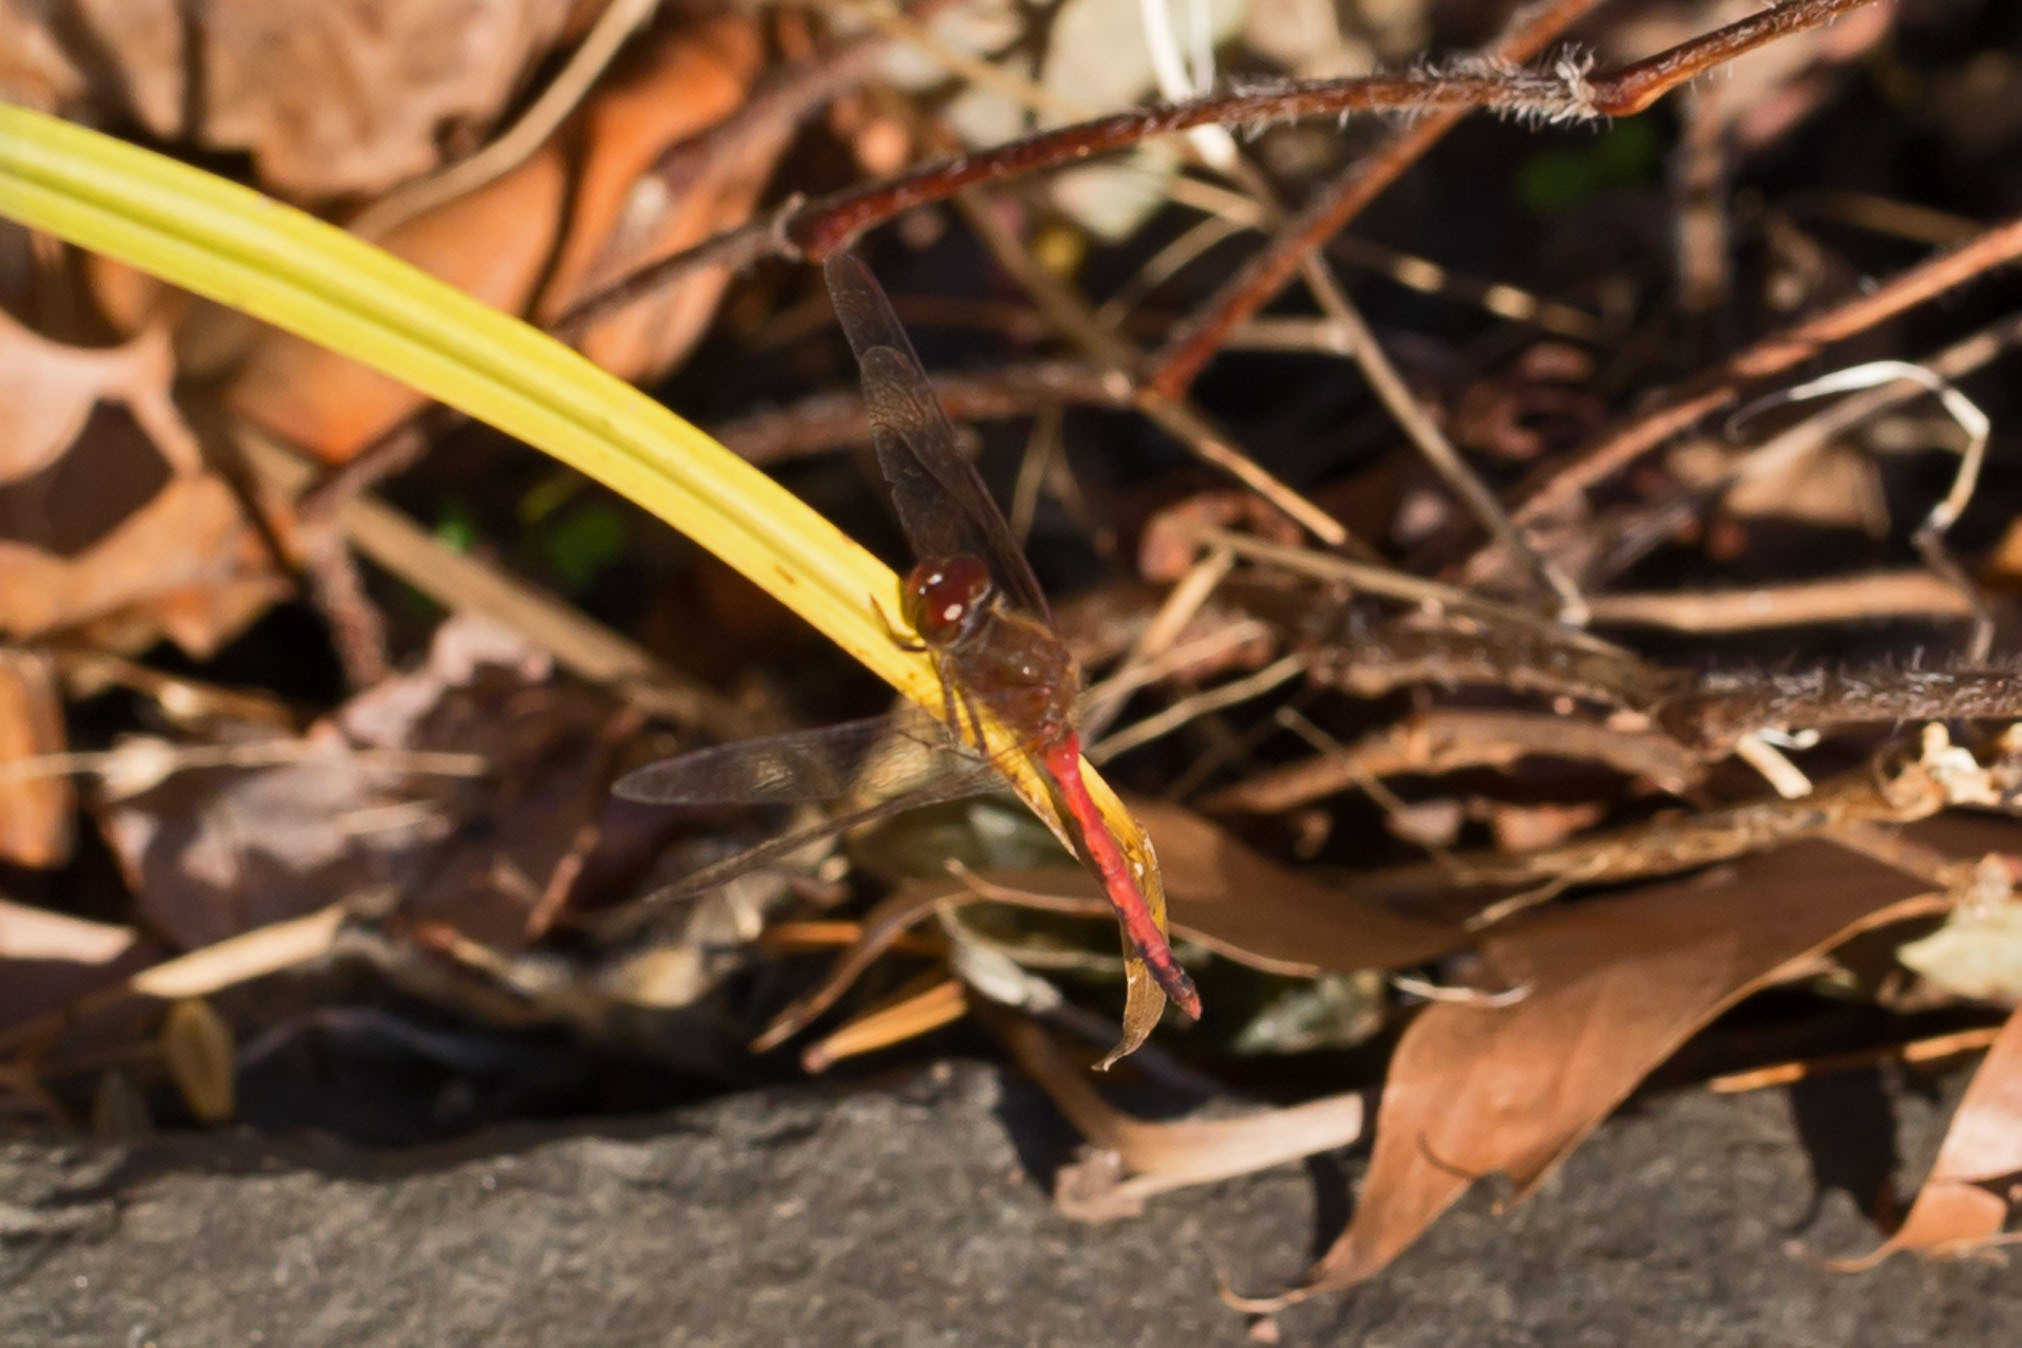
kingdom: Animalia
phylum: Arthropoda
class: Insecta
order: Odonata
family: Libellulidae
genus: Sympetrum
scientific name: Sympetrum vicinum
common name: Autumn meadowhawk
